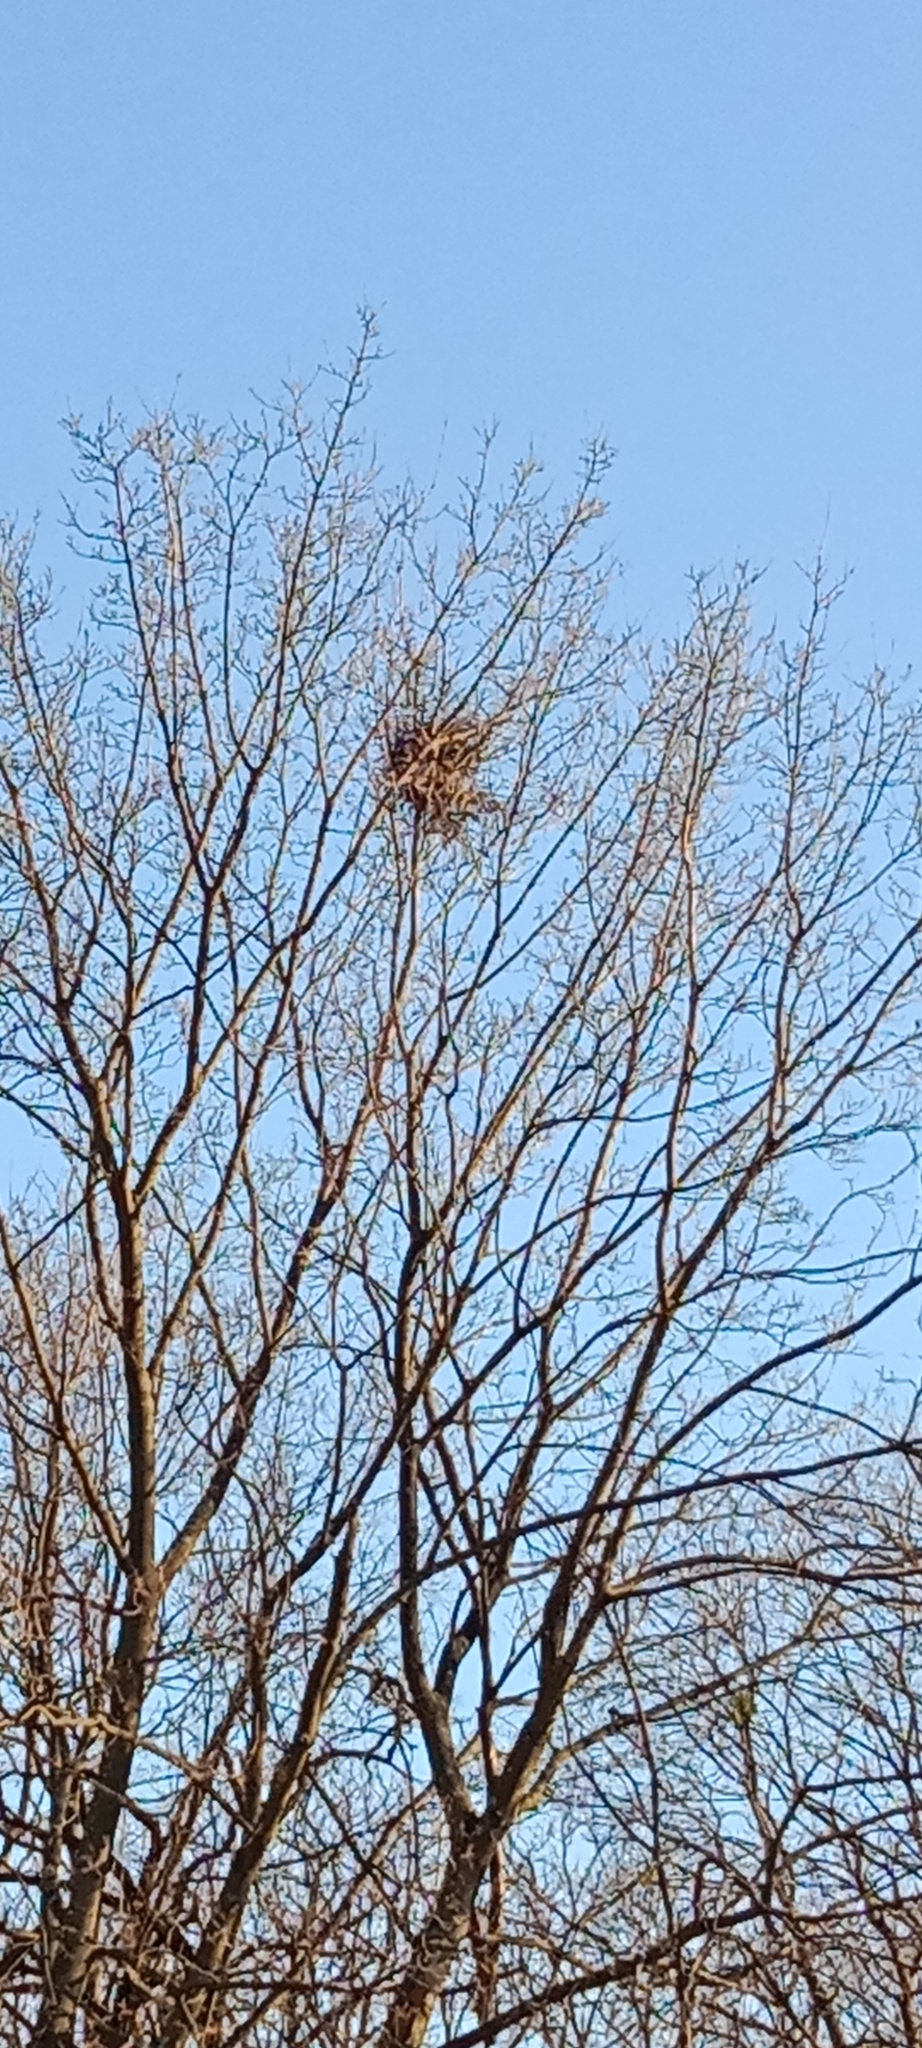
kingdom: Animalia
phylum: Chordata
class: Aves
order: Passeriformes
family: Corvidae
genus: Pica
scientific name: Pica pica
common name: Eurasian magpie
